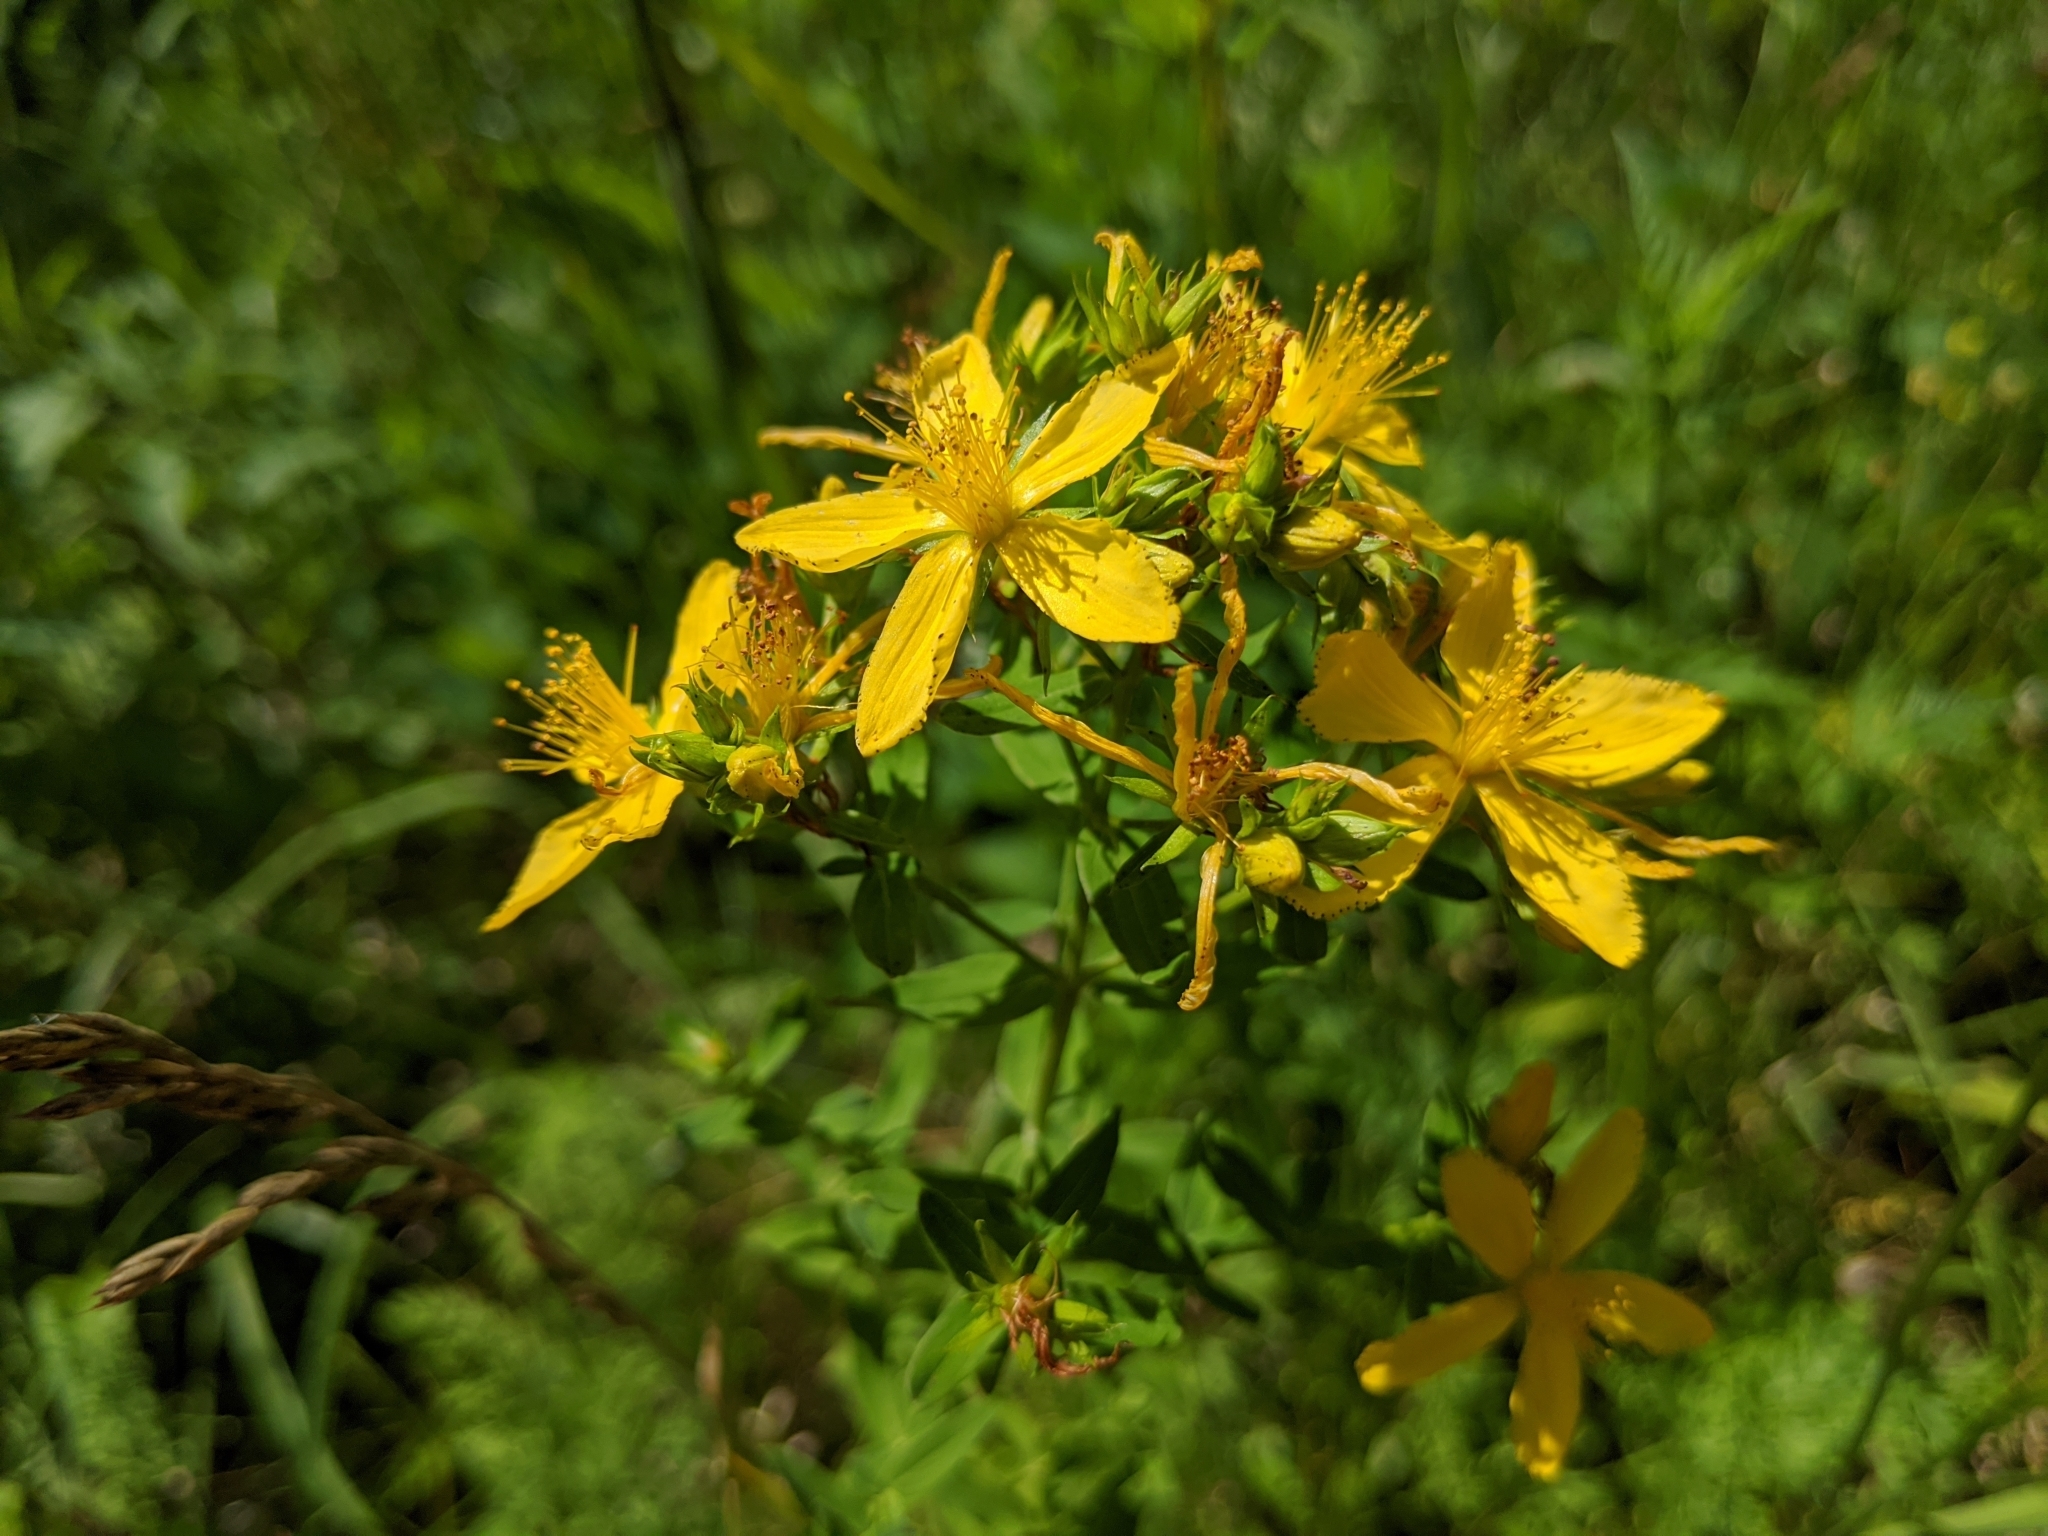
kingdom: Plantae
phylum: Tracheophyta
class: Magnoliopsida
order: Malpighiales
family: Hypericaceae
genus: Hypericum
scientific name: Hypericum perforatum
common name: Common st. johnswort
